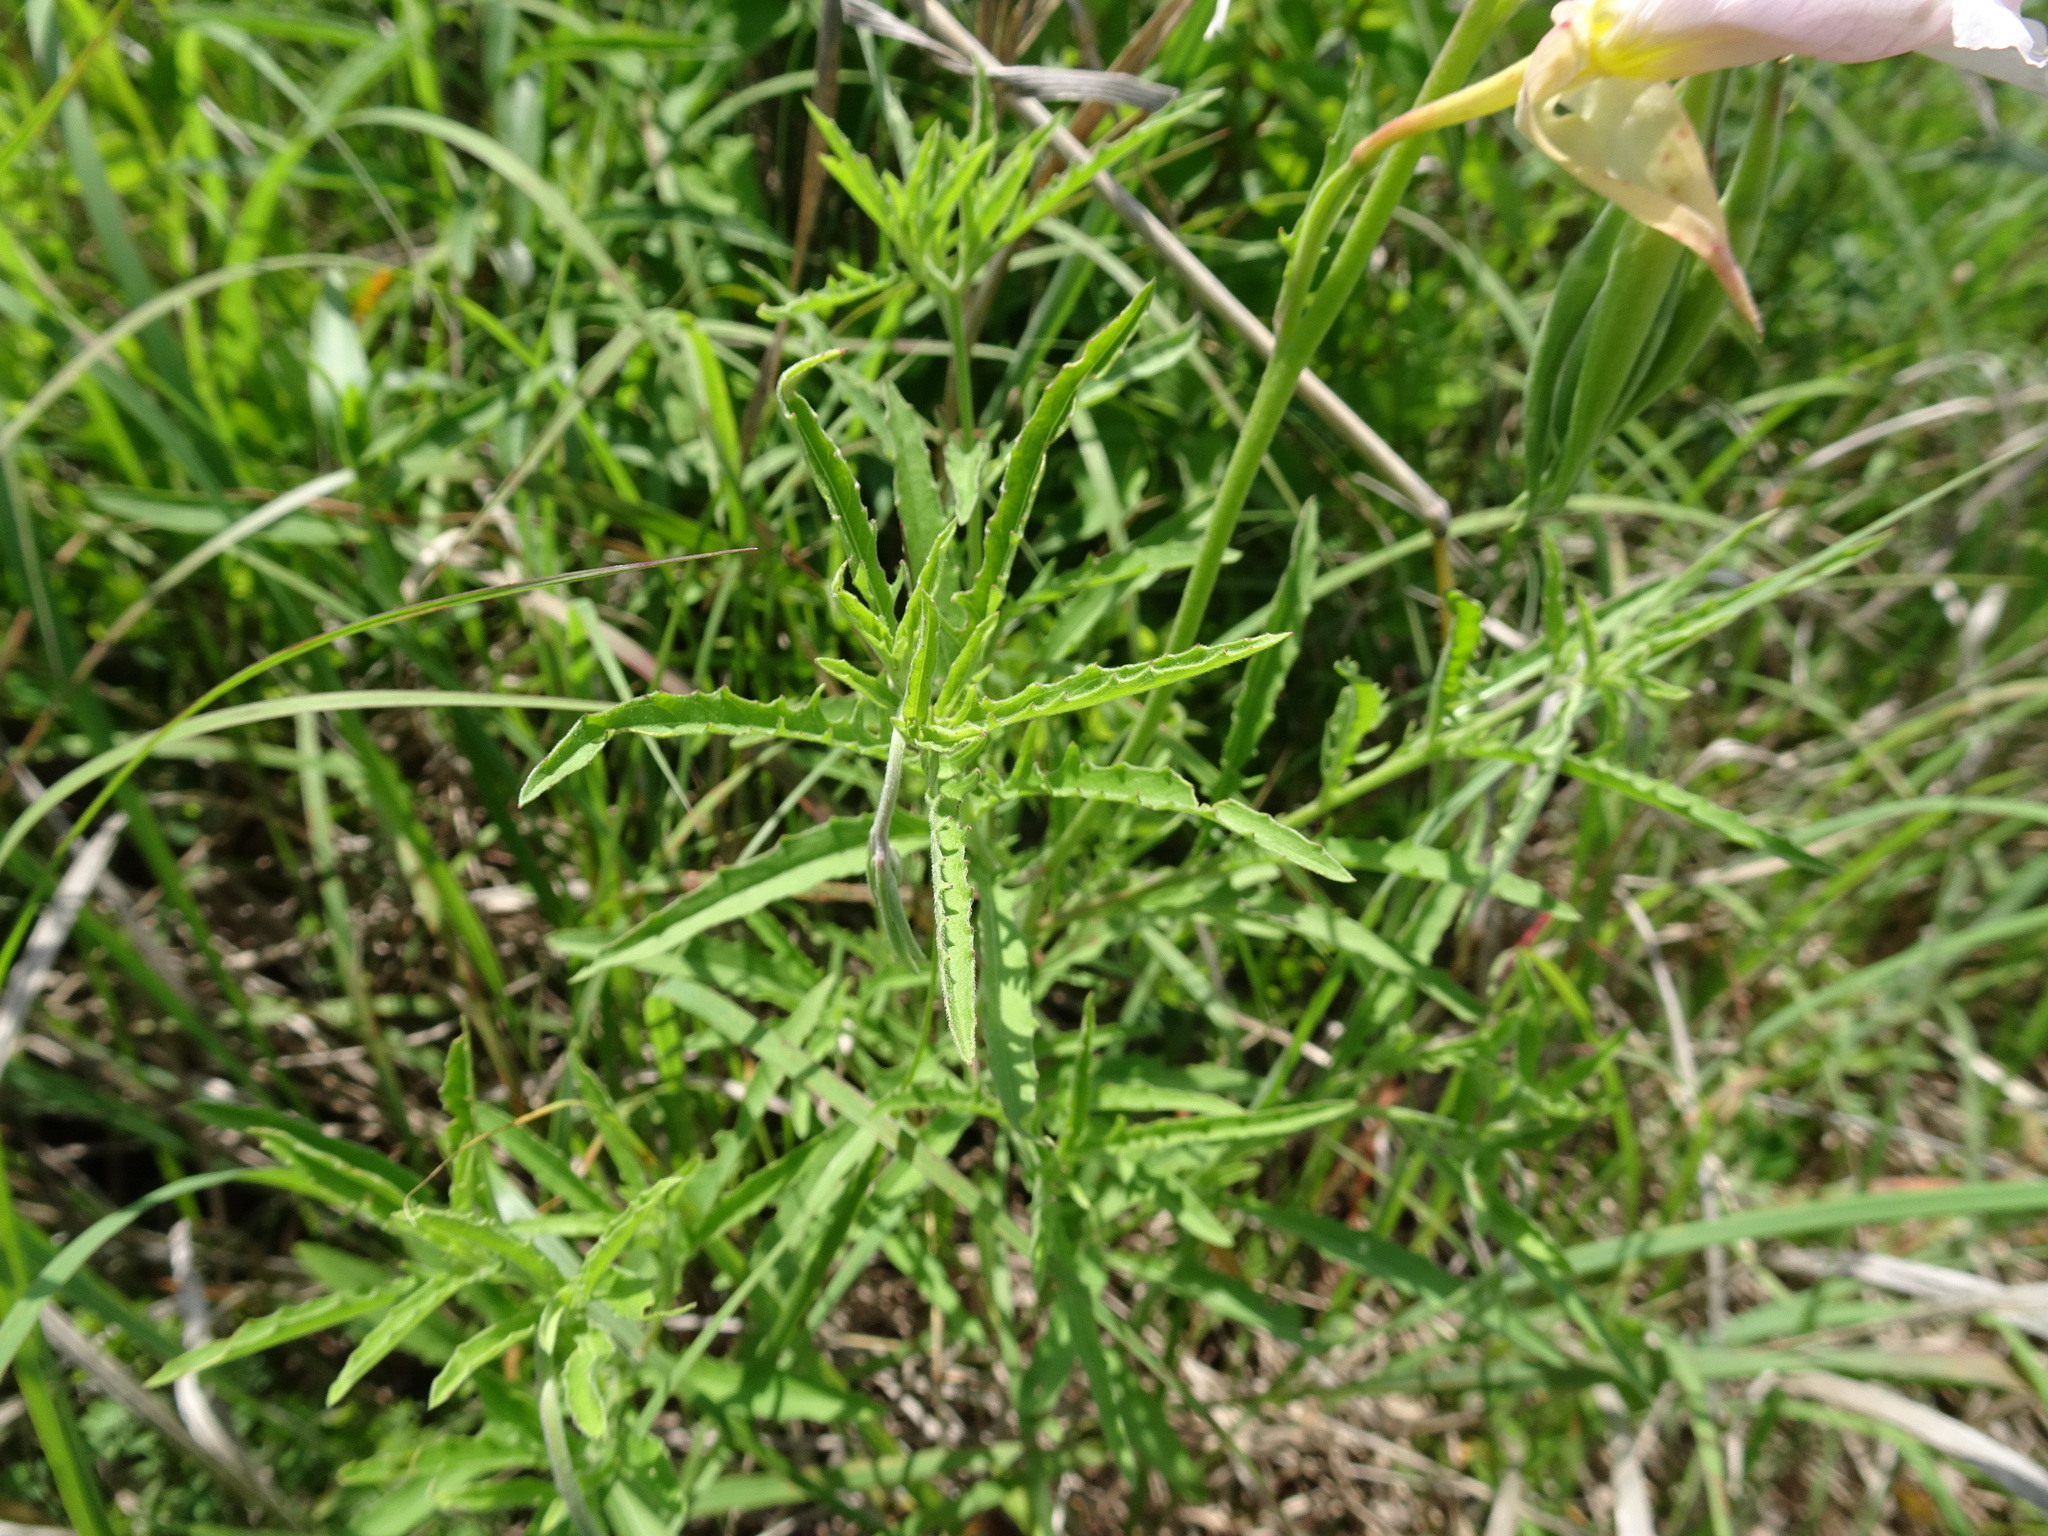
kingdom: Plantae
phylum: Tracheophyta
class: Magnoliopsida
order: Myrtales
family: Onagraceae
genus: Oenothera
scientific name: Oenothera speciosa
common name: White evening-primrose
